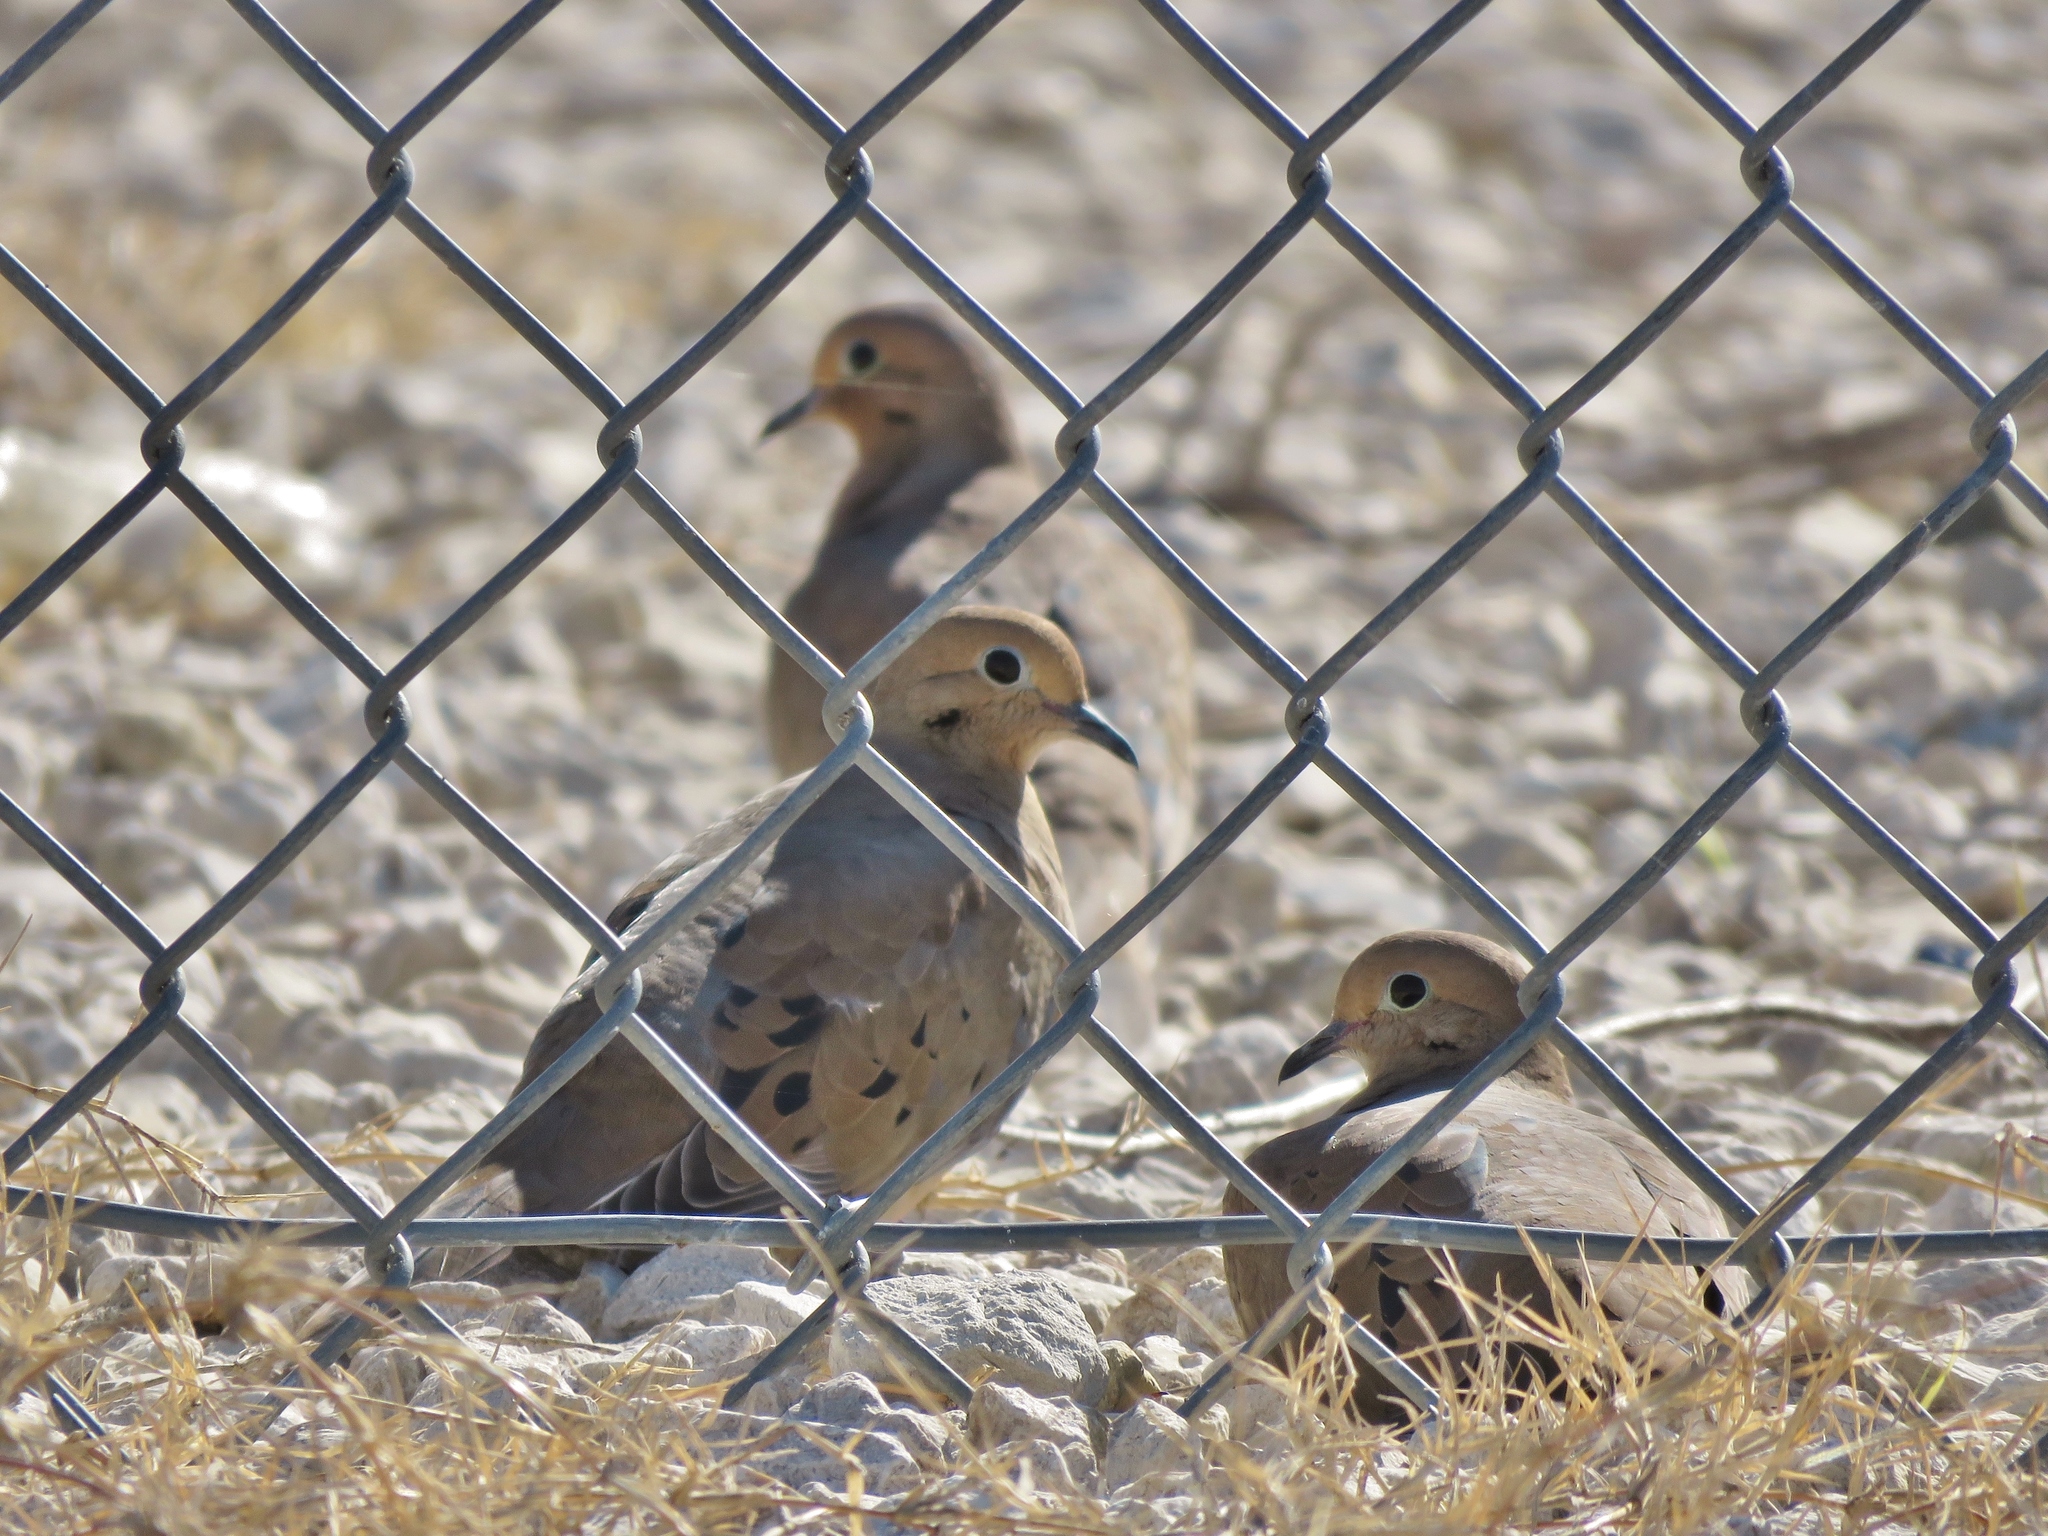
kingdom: Animalia
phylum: Chordata
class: Aves
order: Columbiformes
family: Columbidae
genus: Zenaida
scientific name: Zenaida macroura
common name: Mourning dove
